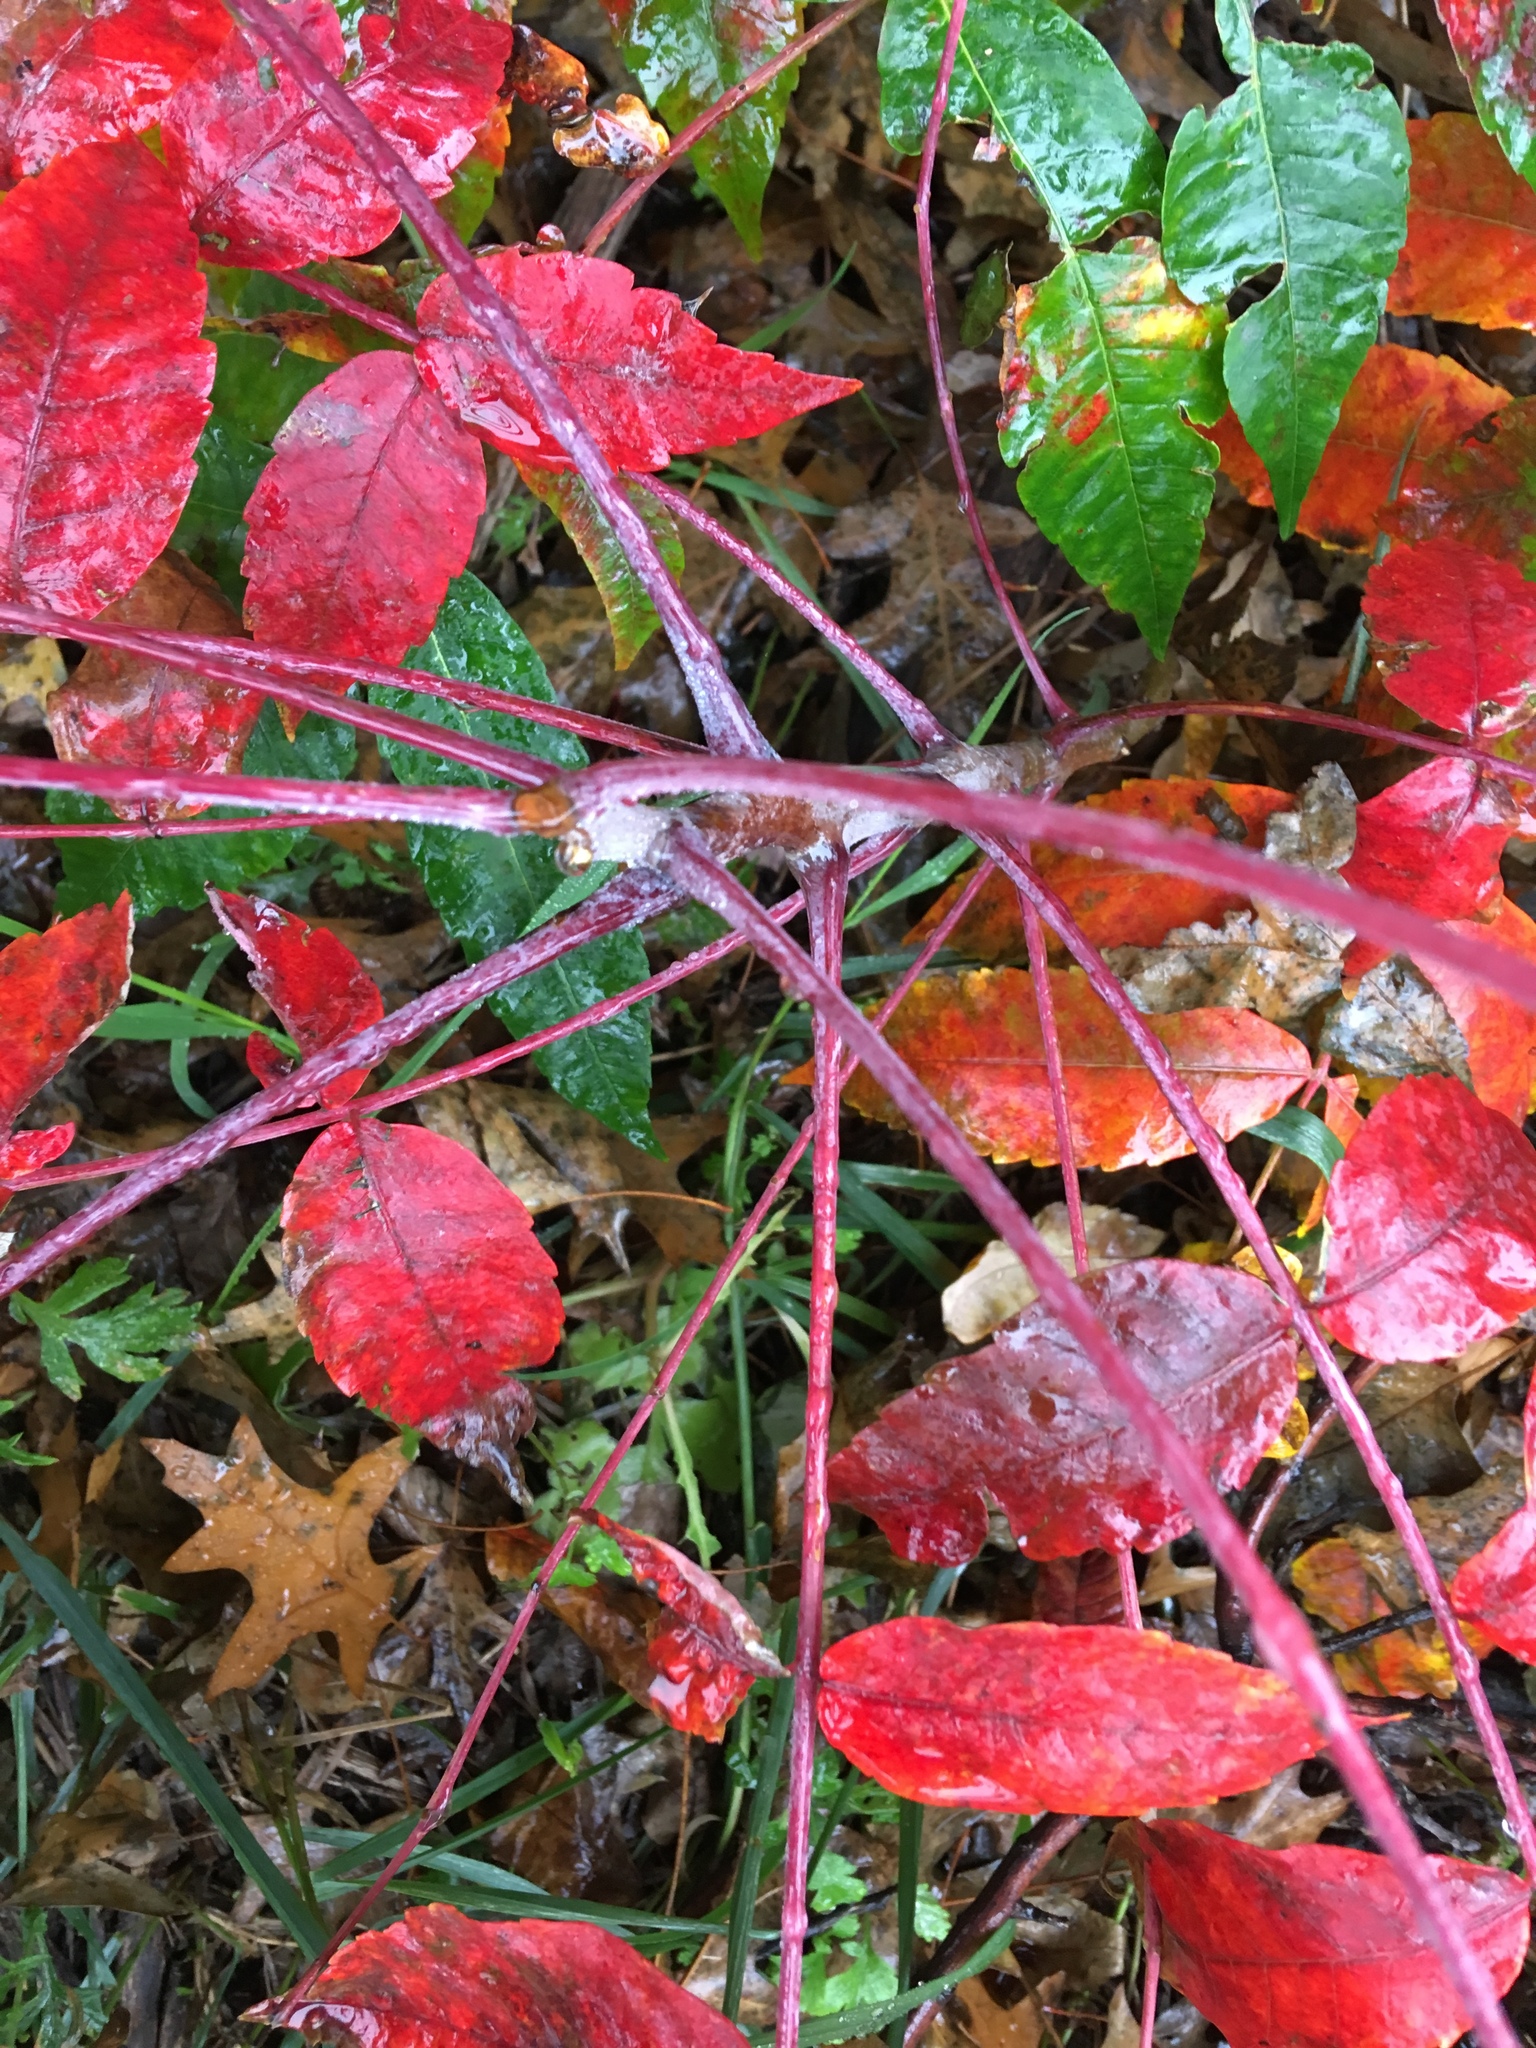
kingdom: Plantae
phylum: Tracheophyta
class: Magnoliopsida
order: Sapindales
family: Anacardiaceae
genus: Rhus
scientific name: Rhus glabra
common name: Scarlet sumac
